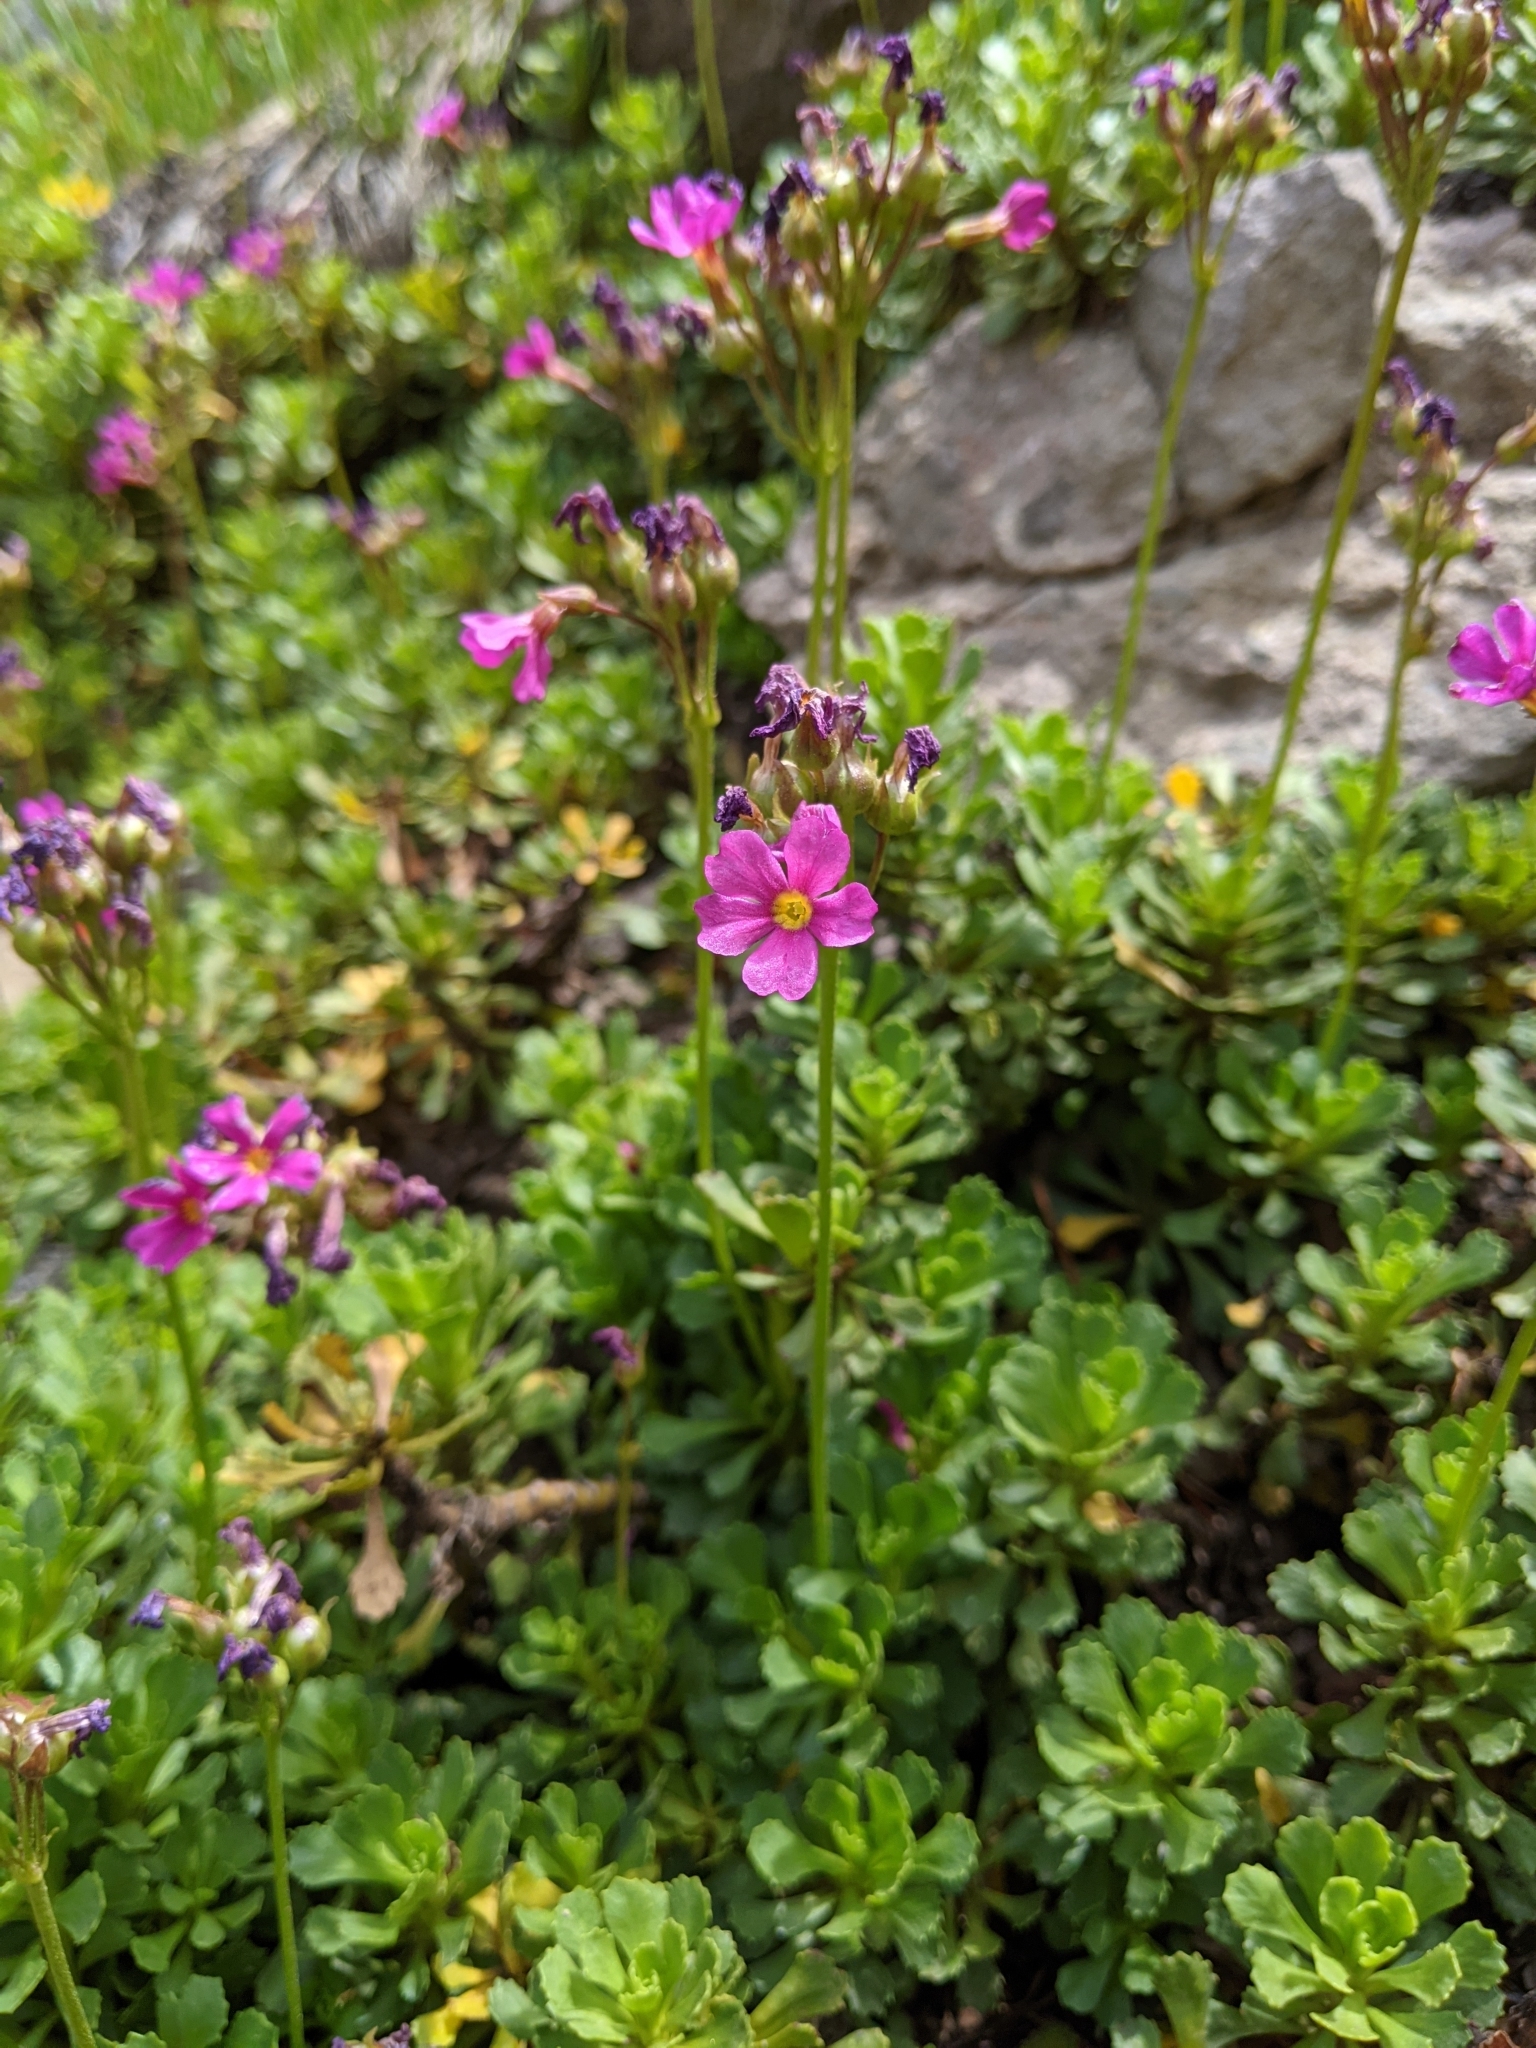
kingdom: Plantae
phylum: Tracheophyta
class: Magnoliopsida
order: Ericales
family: Primulaceae
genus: Primula
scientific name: Primula suffrutescens
